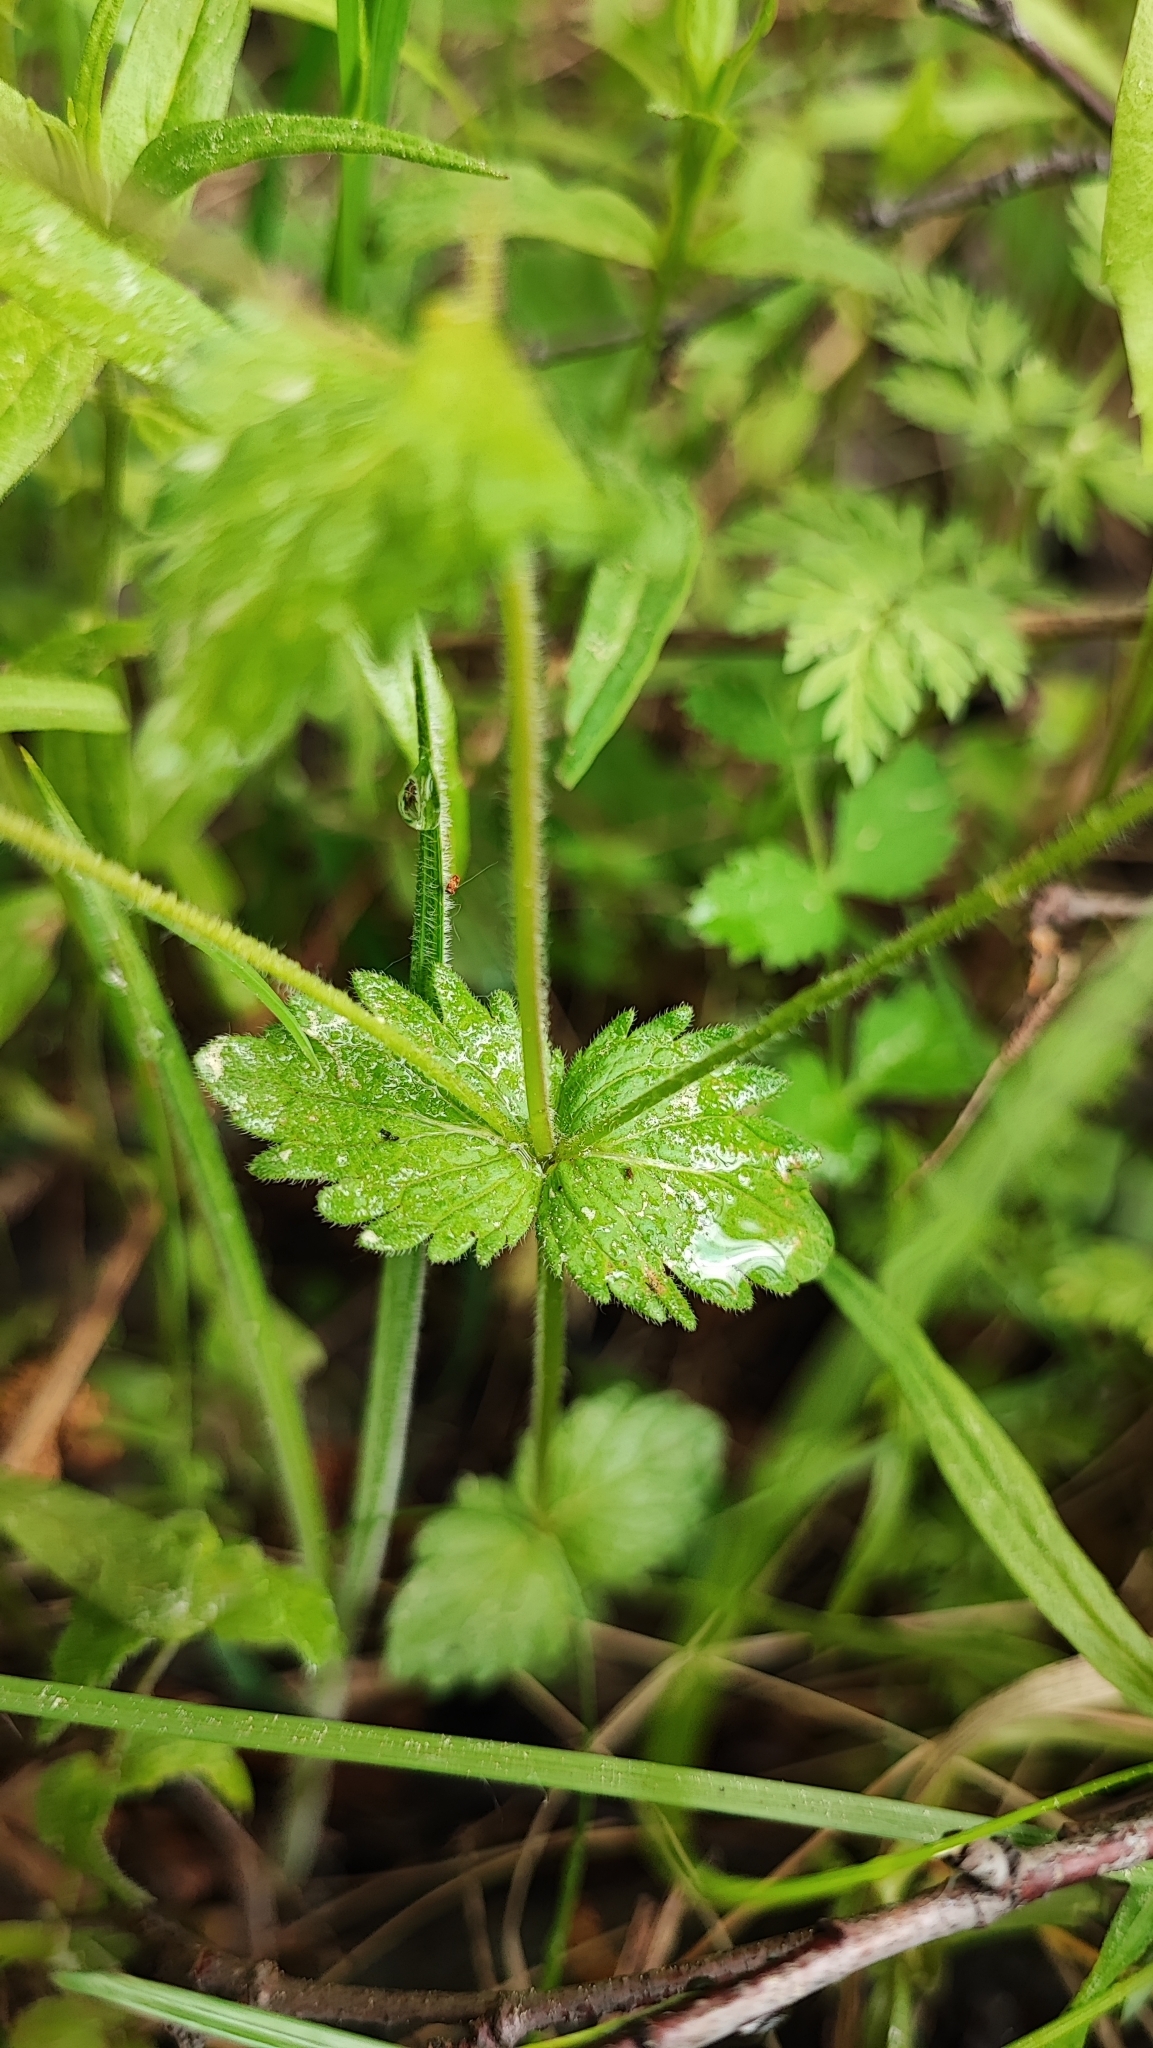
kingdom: Plantae
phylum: Tracheophyta
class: Magnoliopsida
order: Lamiales
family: Plantaginaceae
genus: Veronica
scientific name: Veronica chamaedrys
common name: Germander speedwell
